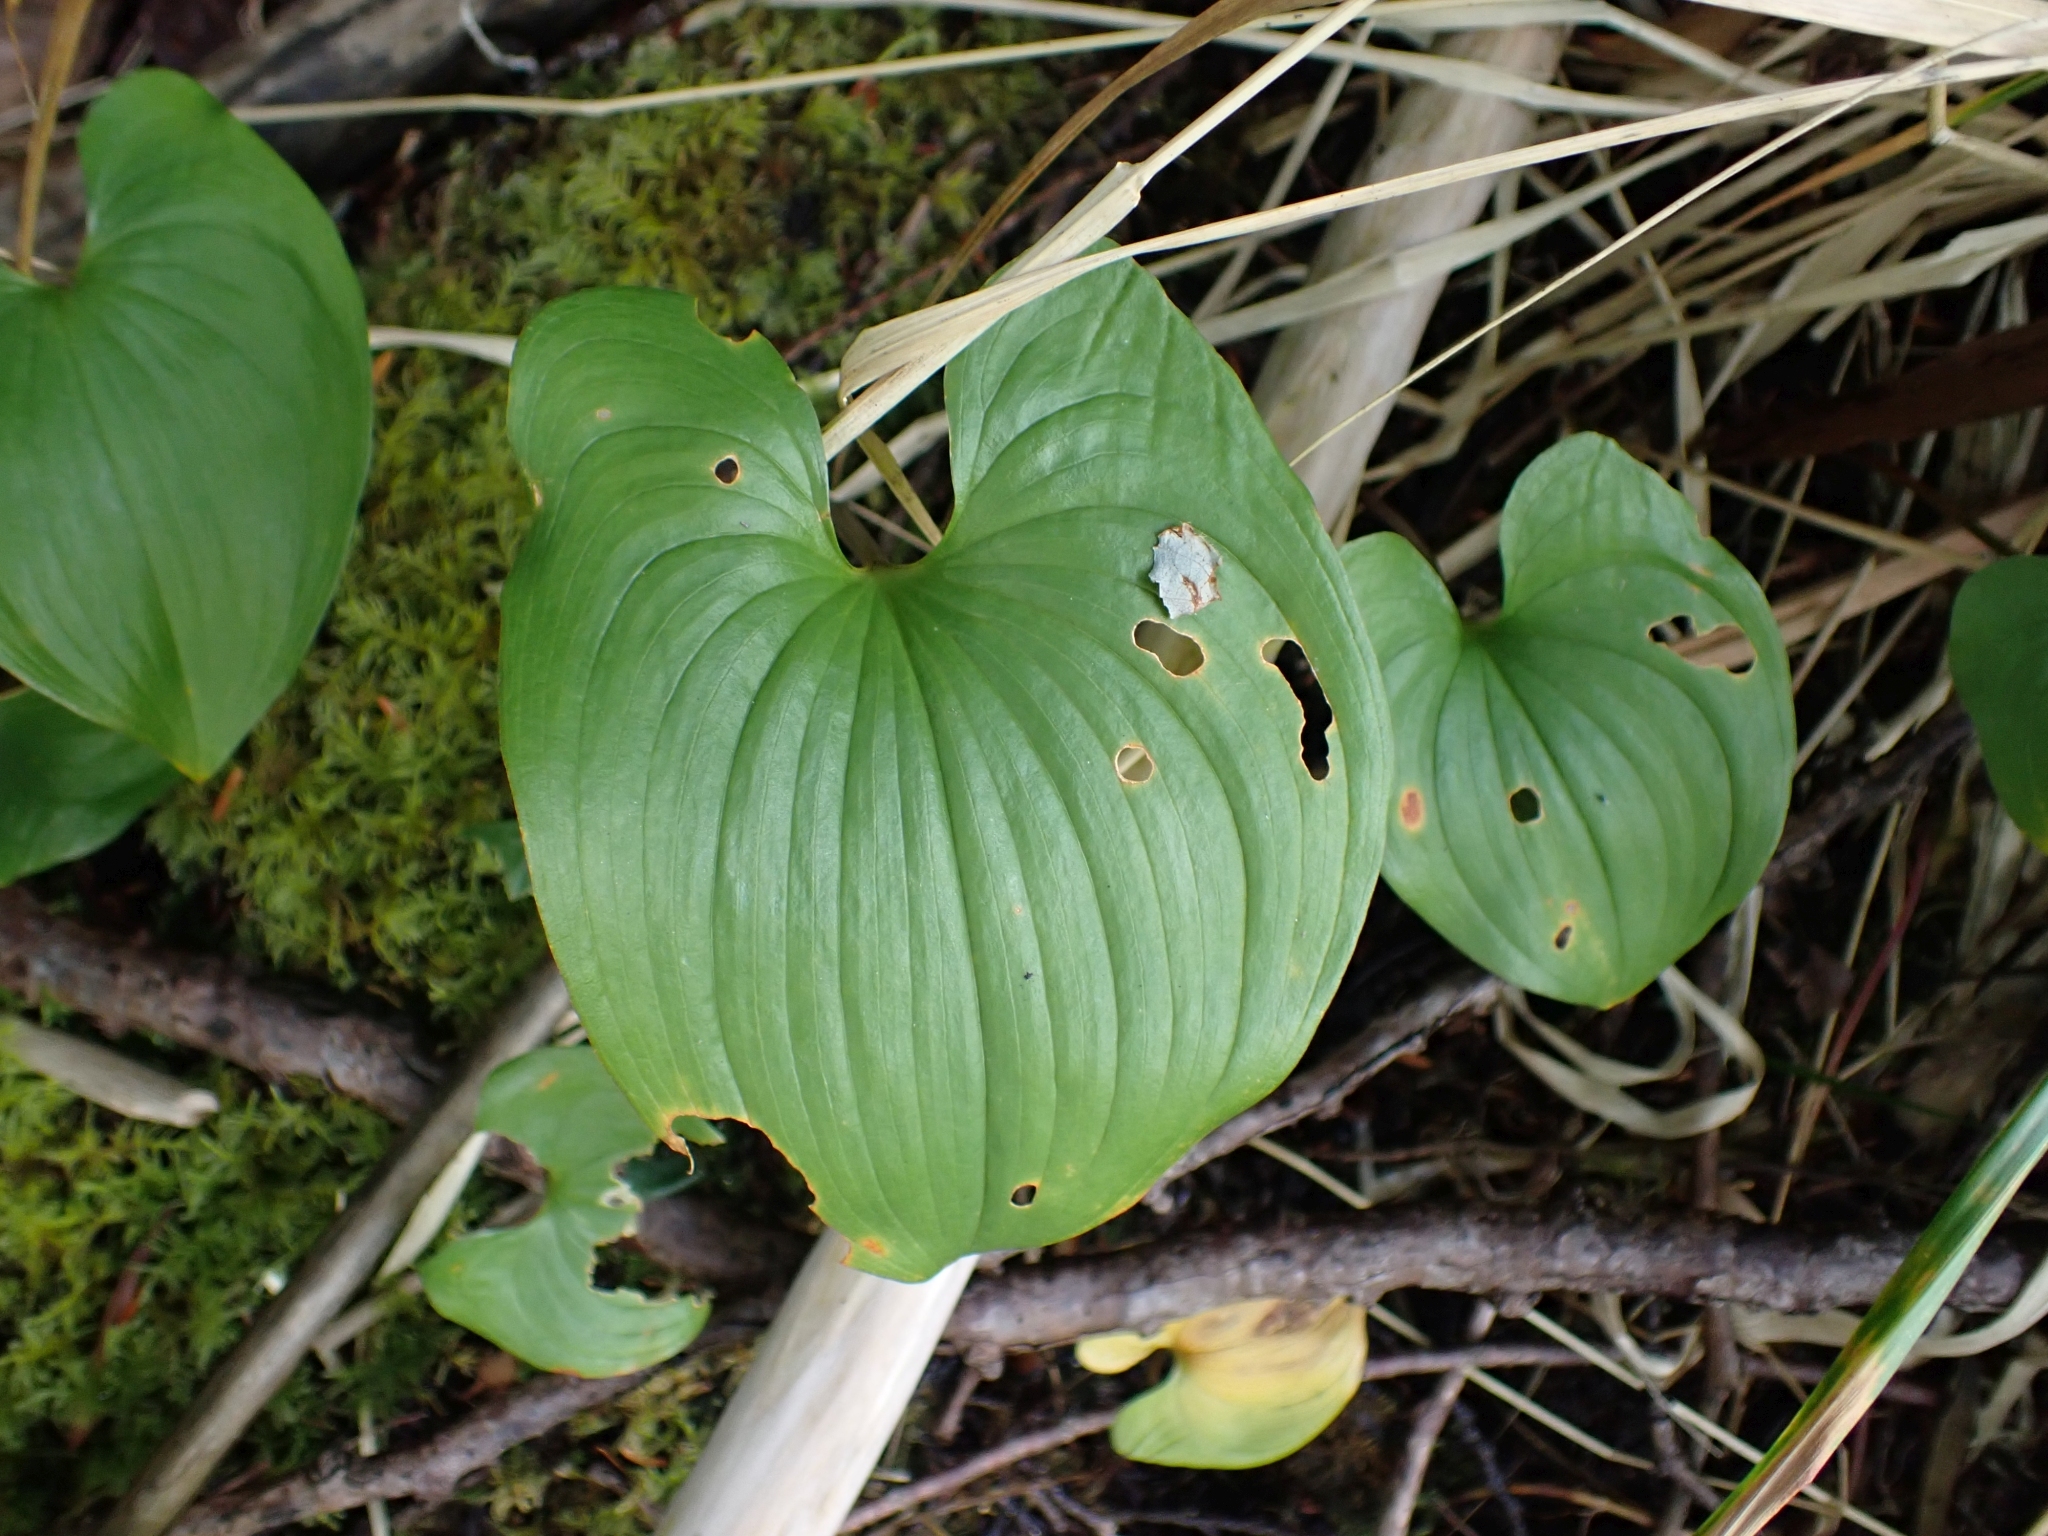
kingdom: Plantae
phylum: Tracheophyta
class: Liliopsida
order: Asparagales
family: Asparagaceae
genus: Maianthemum
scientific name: Maianthemum dilatatum
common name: False lily-of-the-valley
